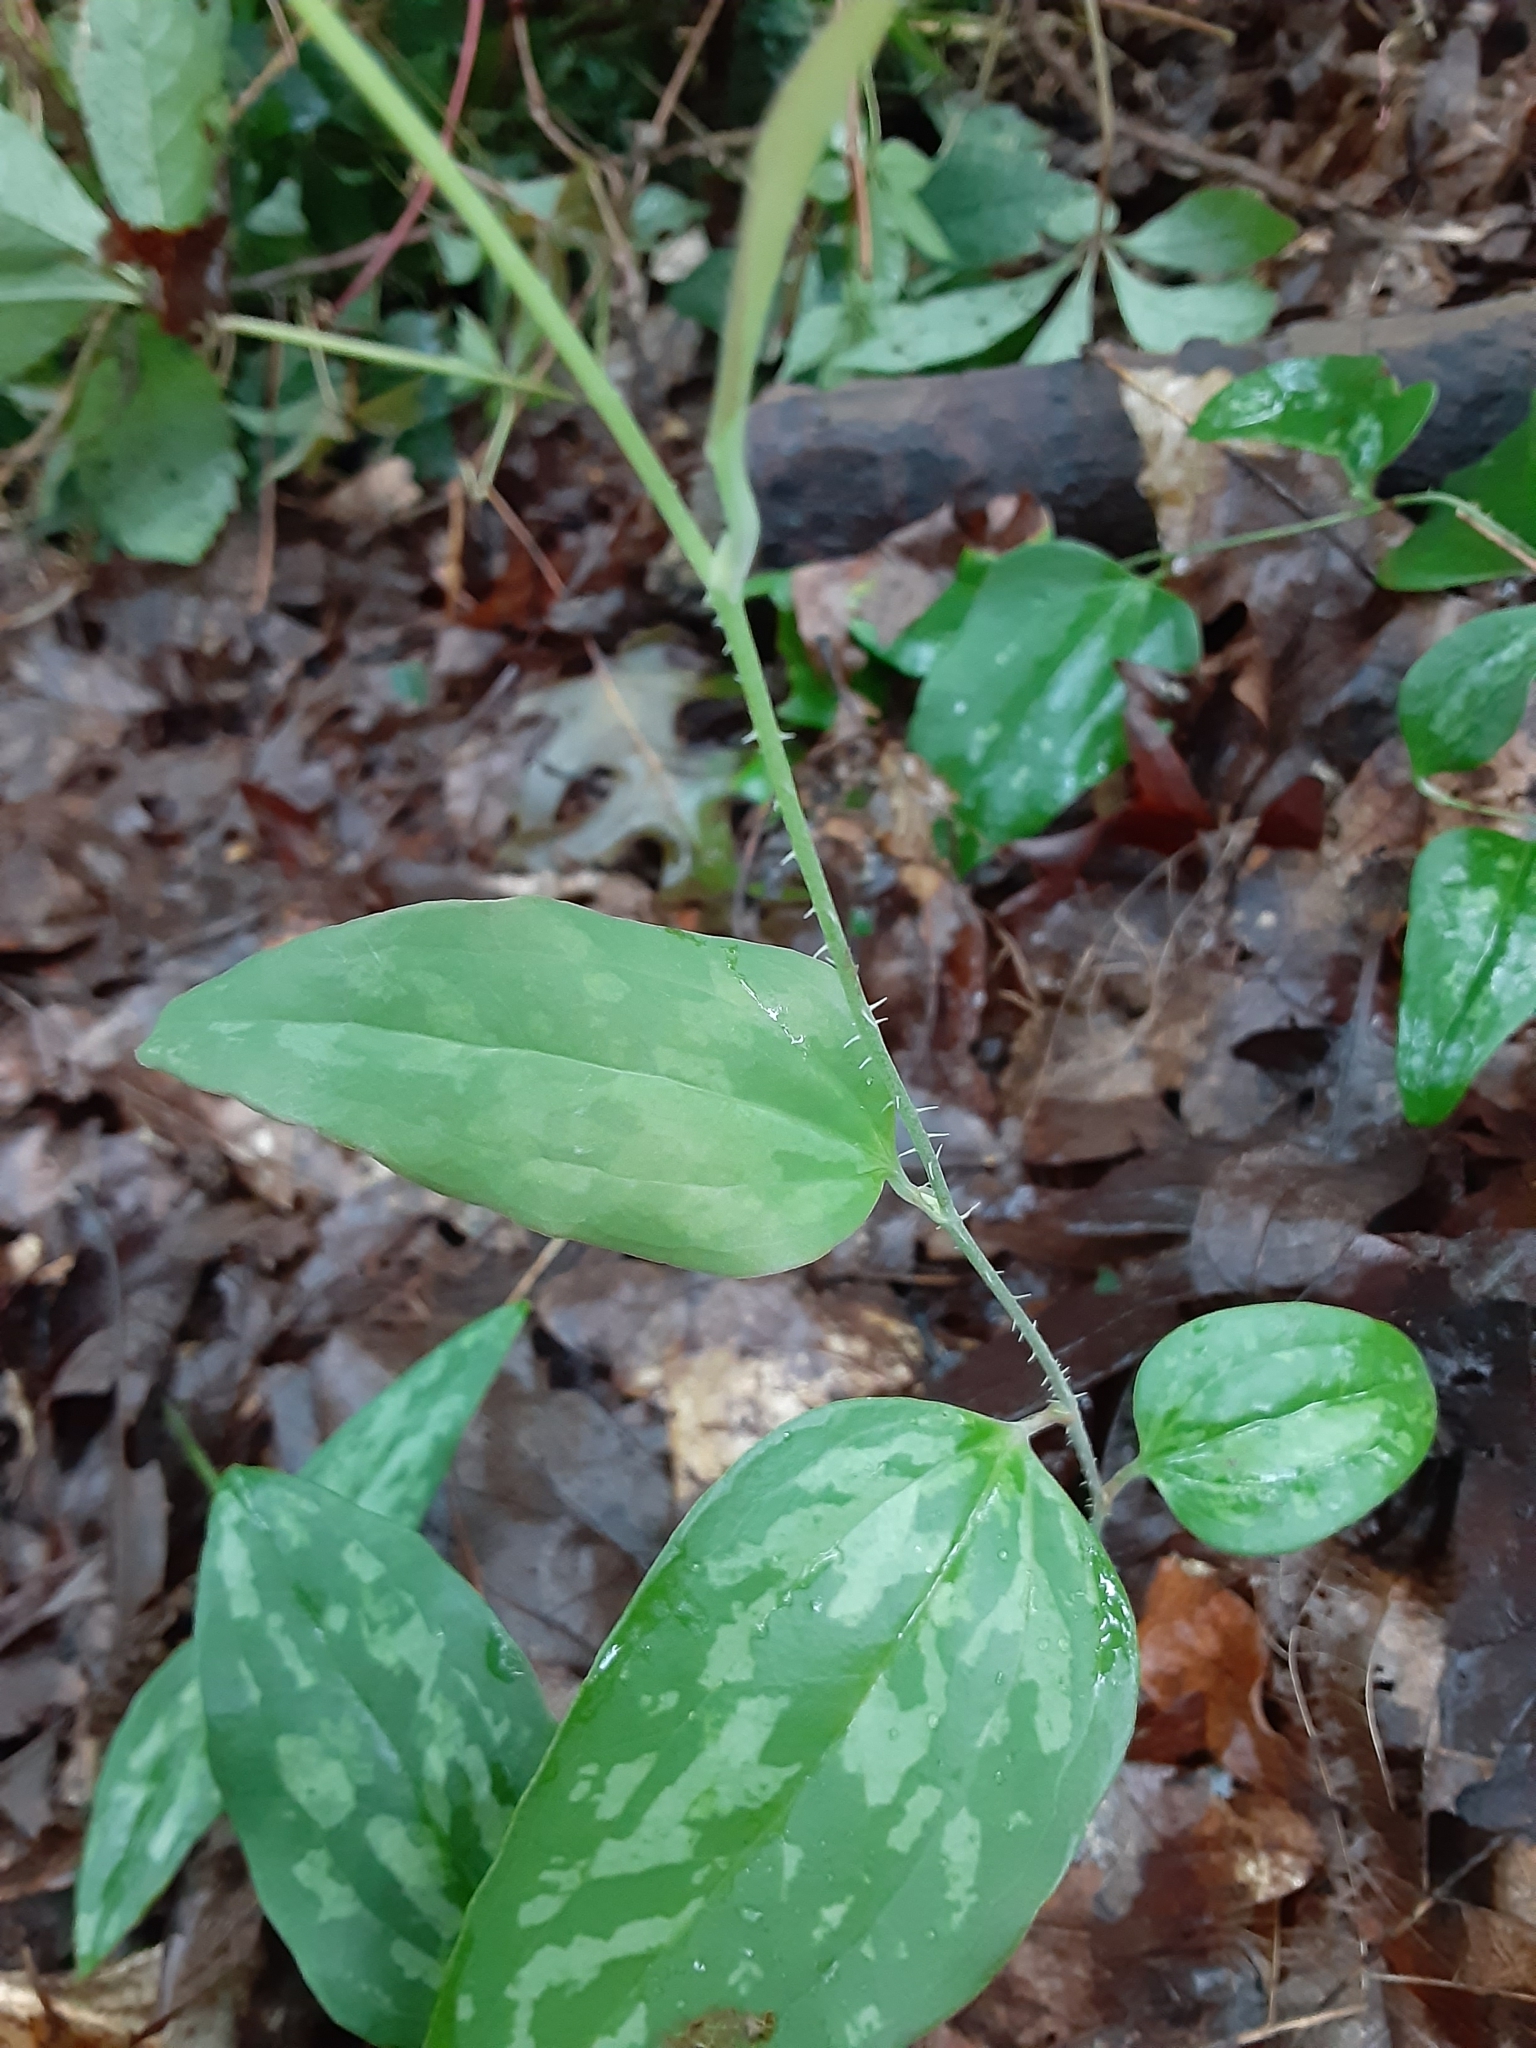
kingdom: Plantae
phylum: Tracheophyta
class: Liliopsida
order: Liliales
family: Smilacaceae
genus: Smilax
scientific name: Smilax glauca
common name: Cat greenbrier
